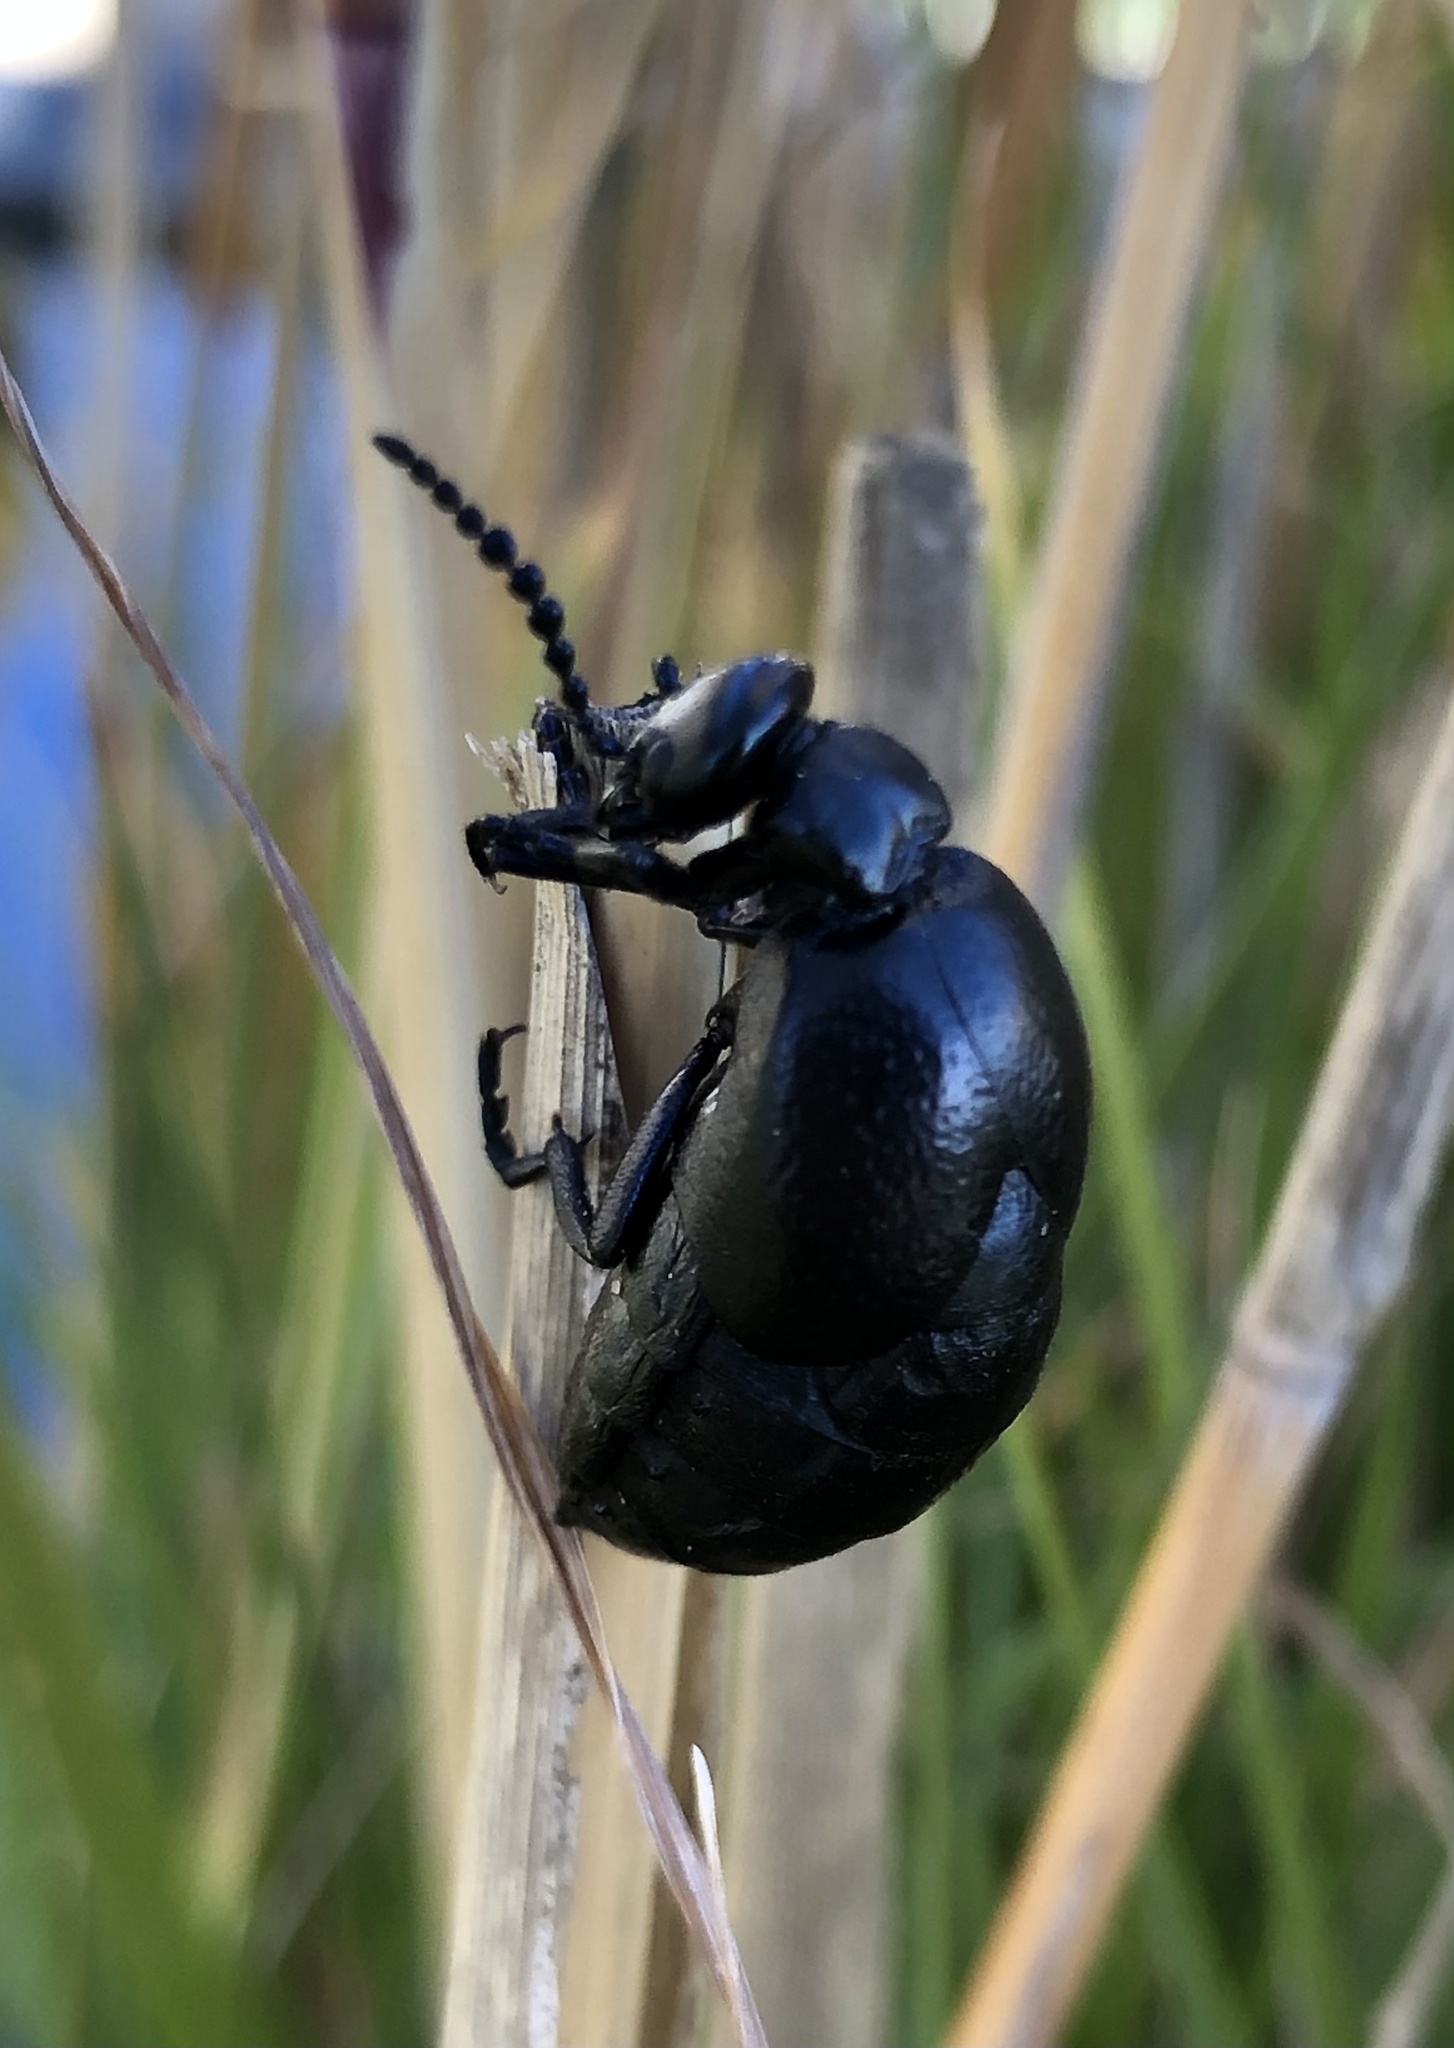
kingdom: Animalia
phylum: Arthropoda
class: Insecta
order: Coleoptera
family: Meloidae
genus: Meloe
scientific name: Meloe autumnalis
